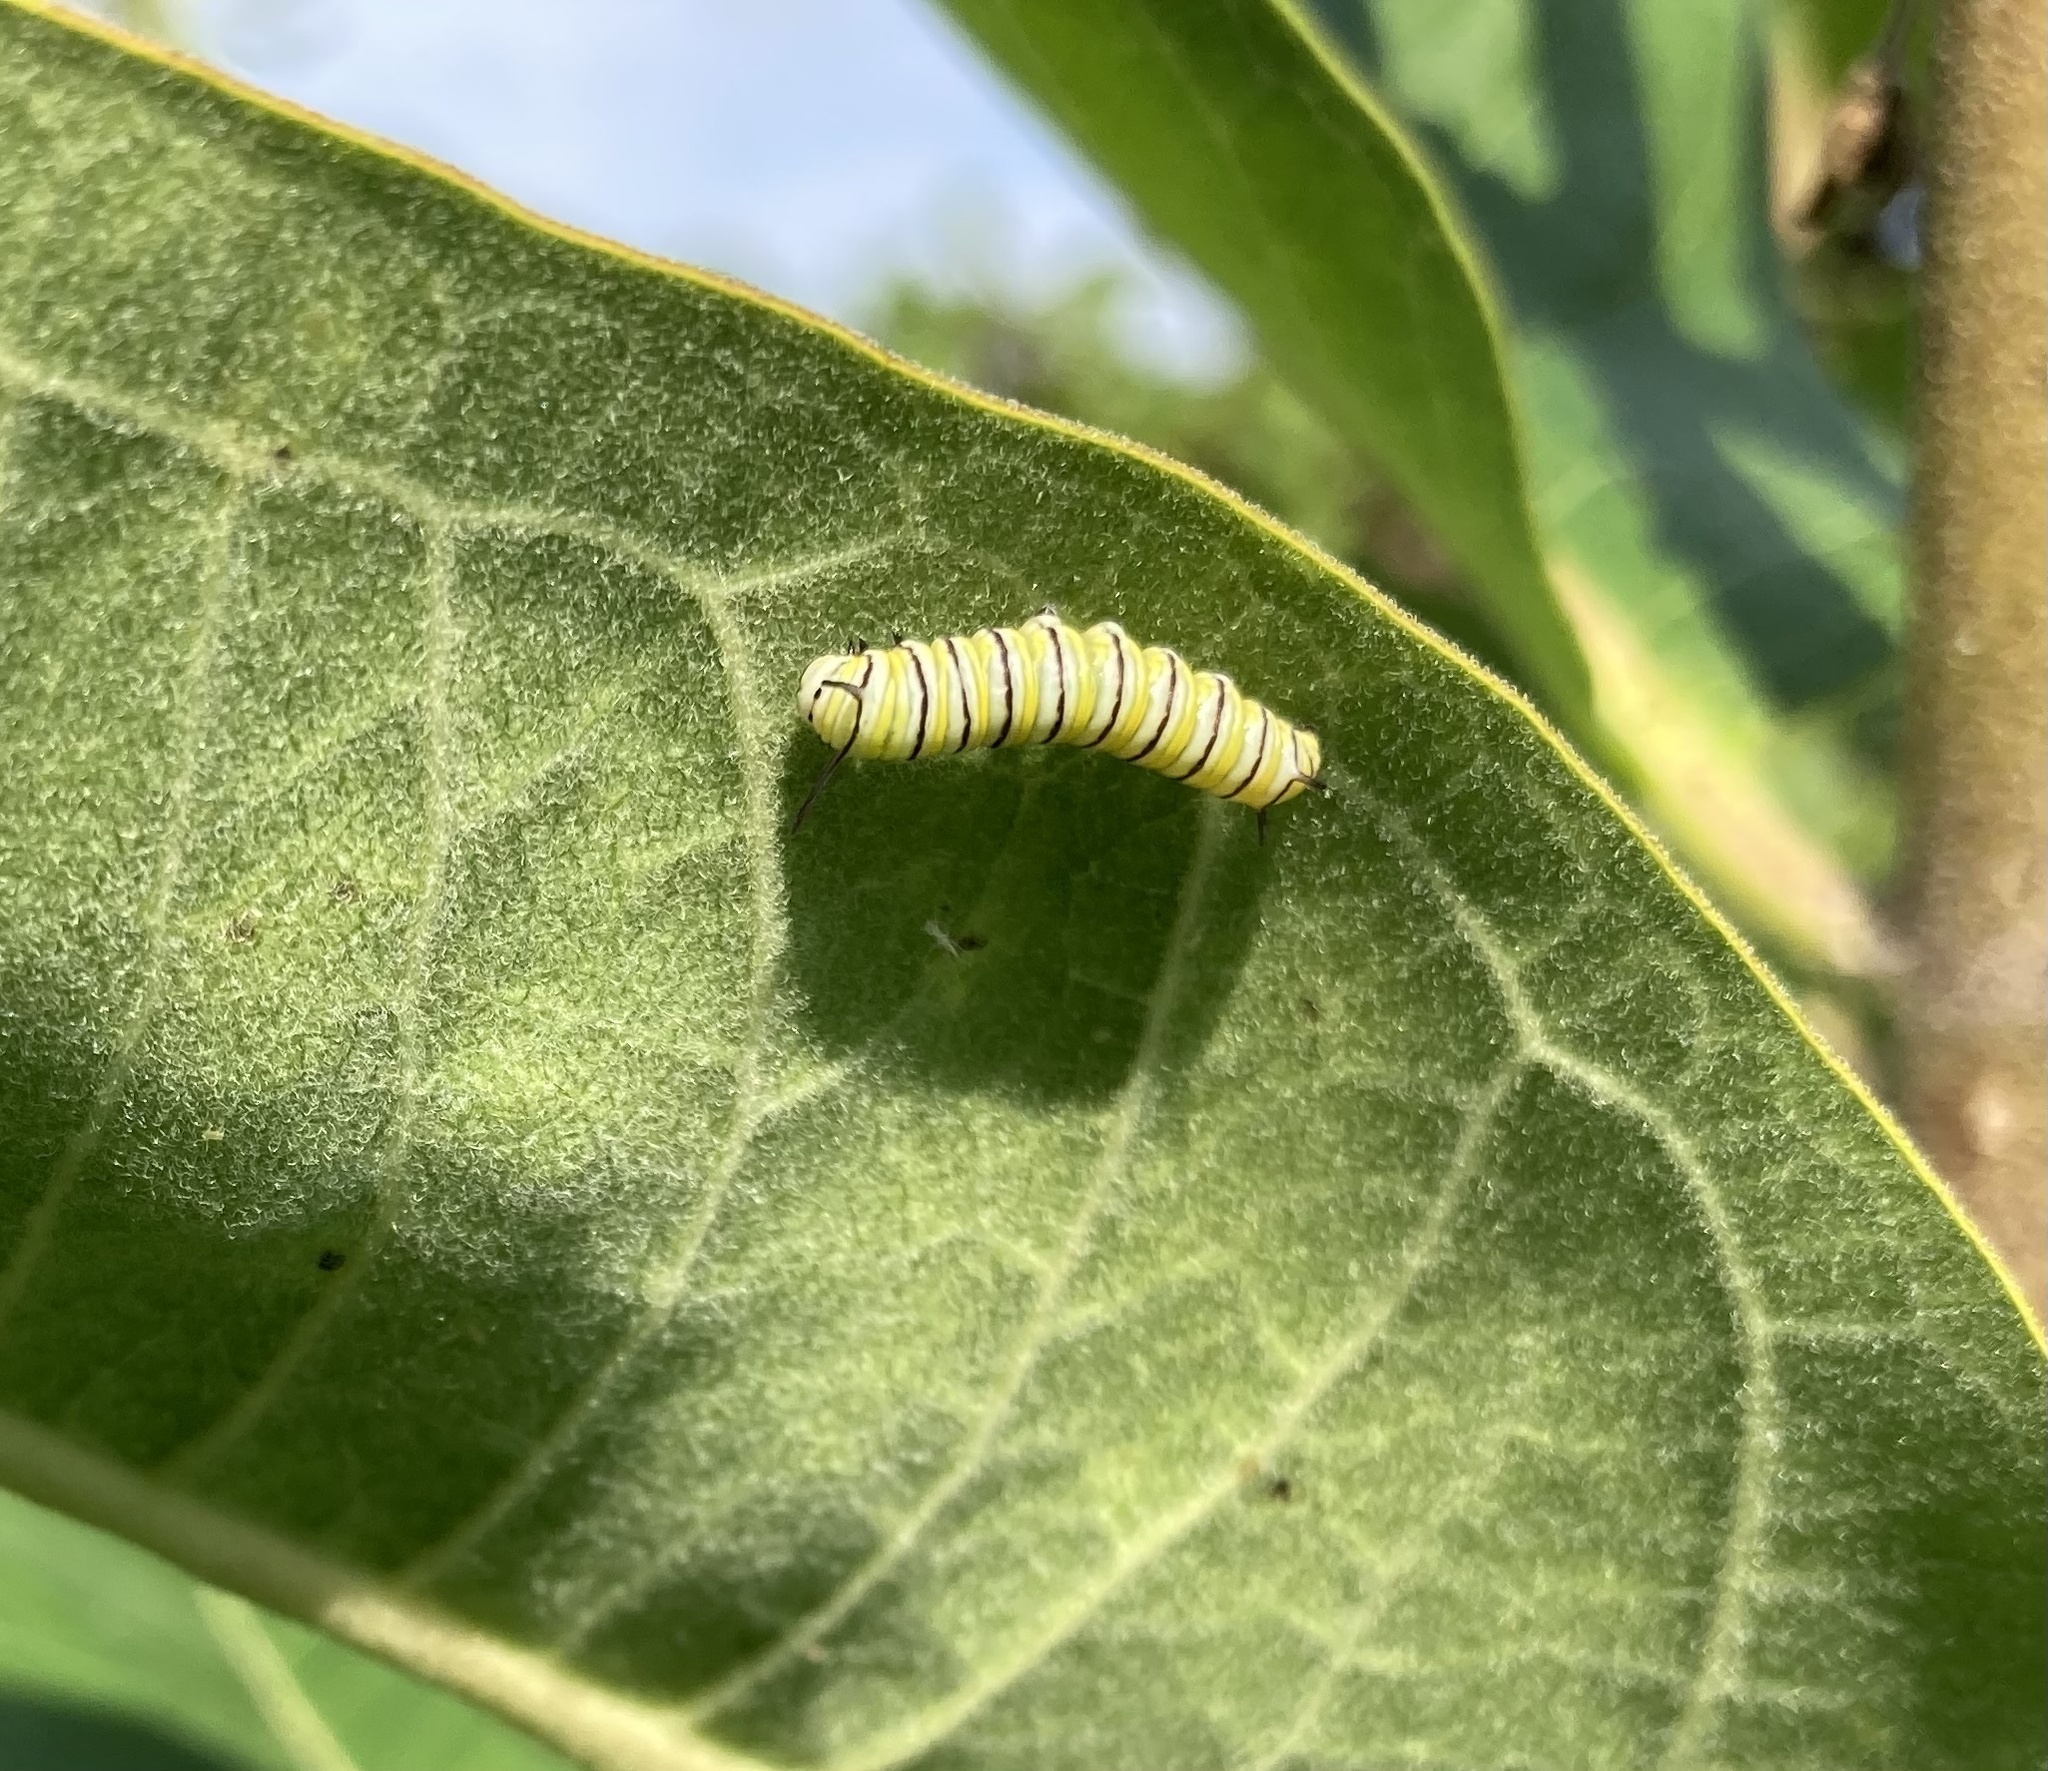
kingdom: Animalia
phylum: Arthropoda
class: Insecta
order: Lepidoptera
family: Nymphalidae
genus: Danaus
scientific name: Danaus plexippus
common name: Monarch
